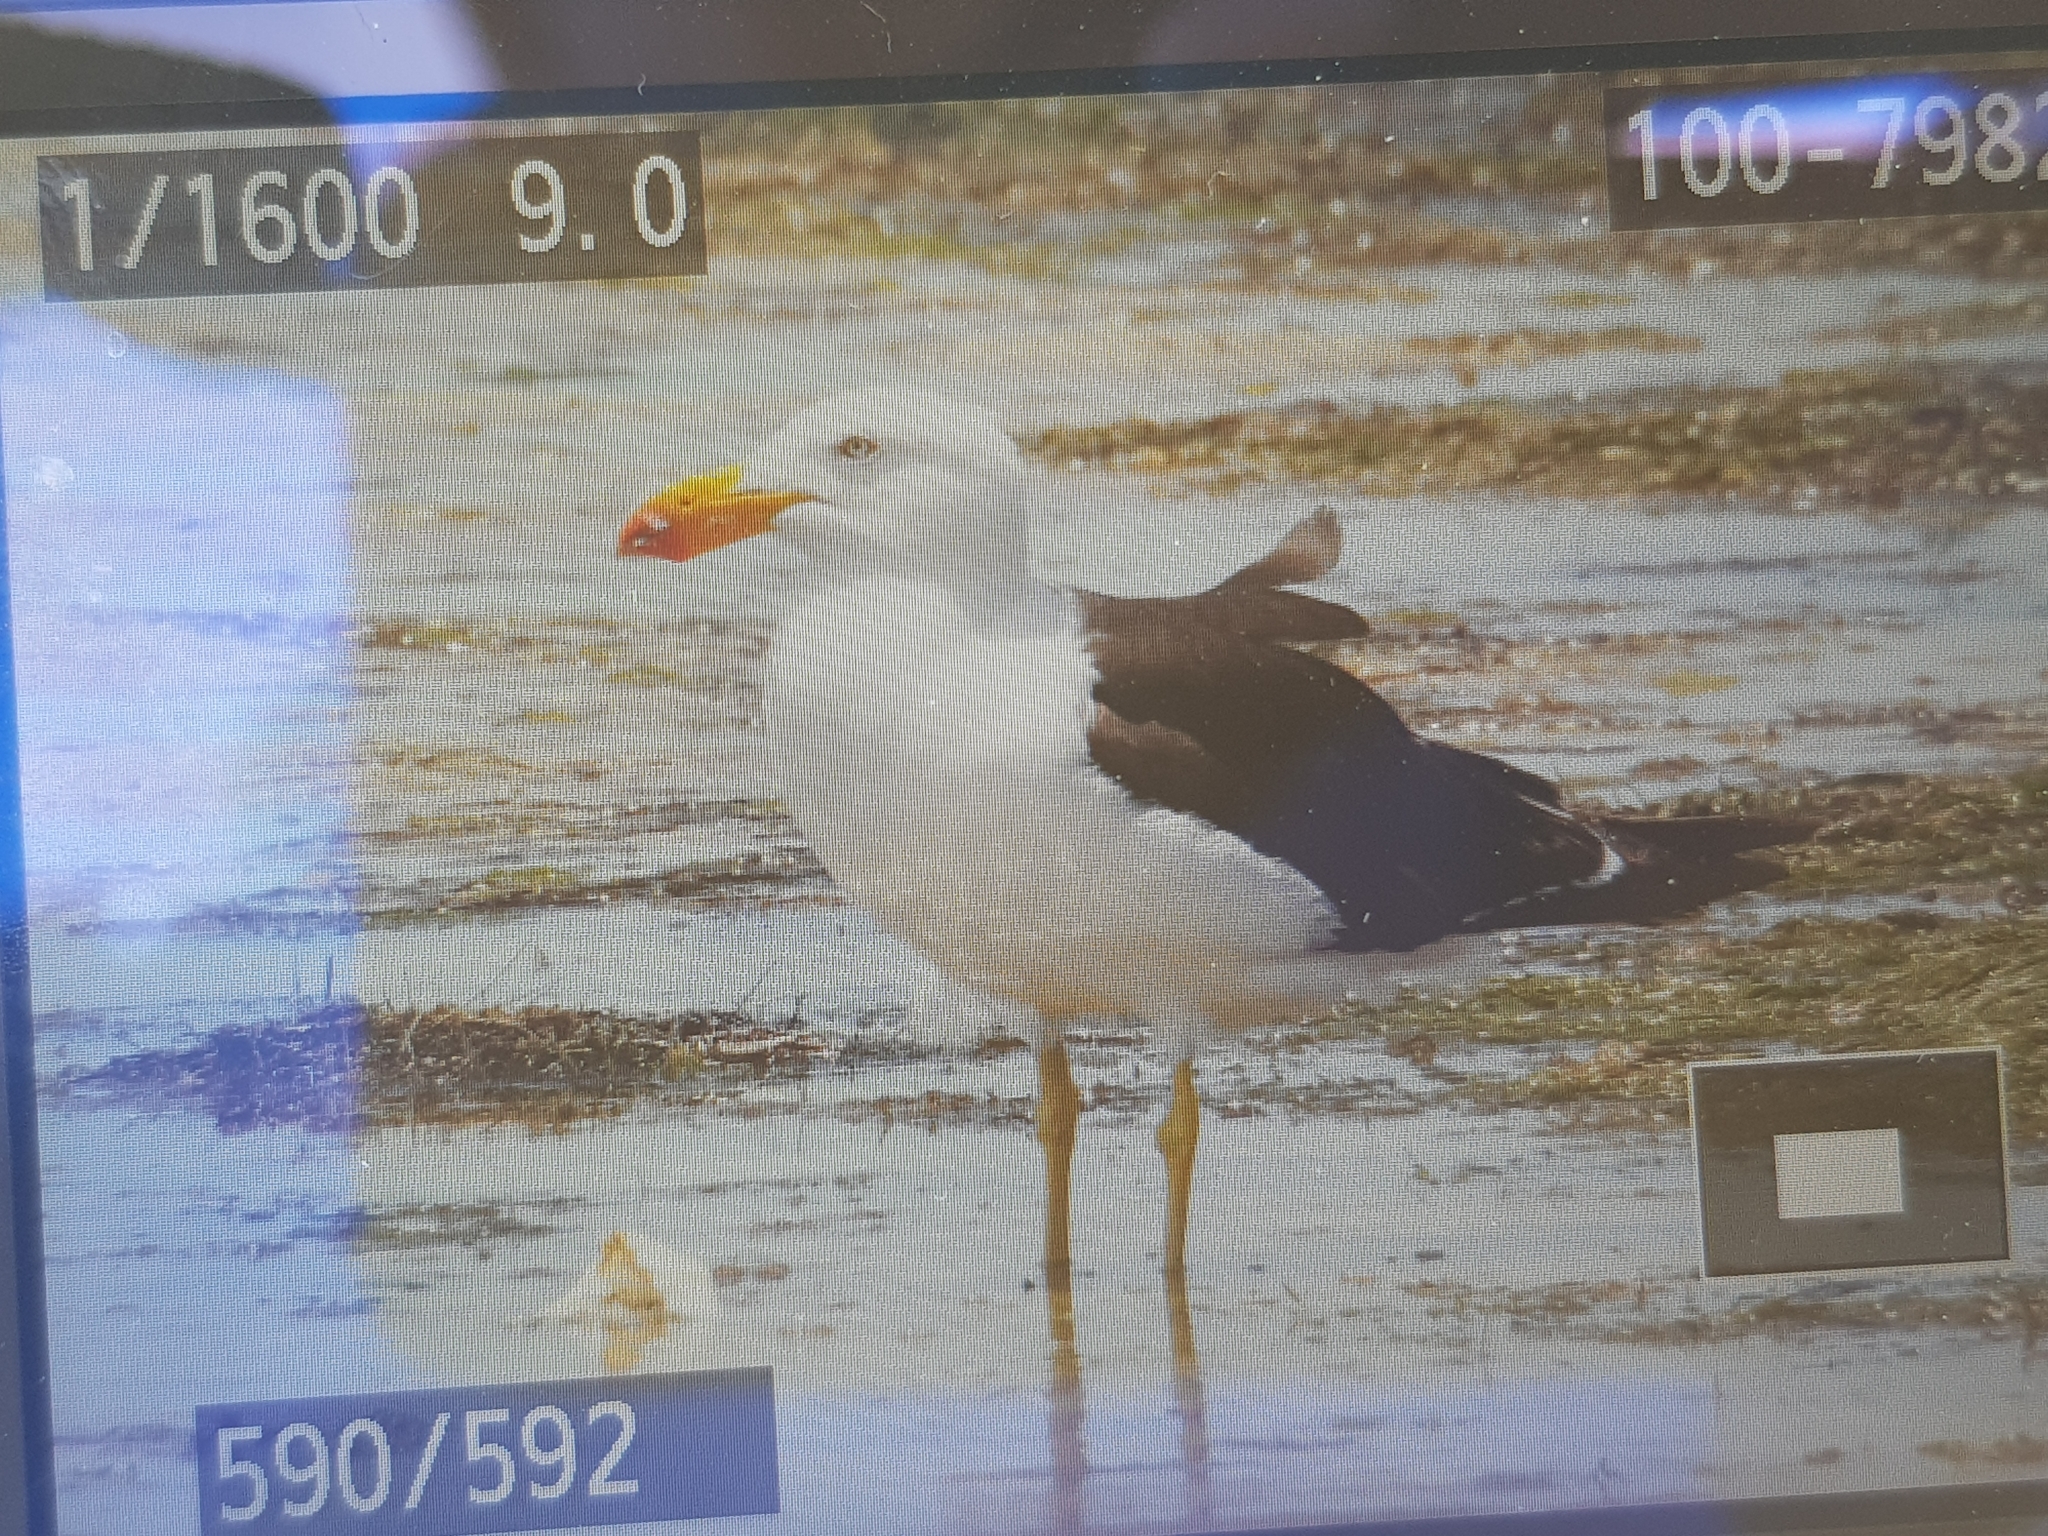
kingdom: Animalia
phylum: Chordata
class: Aves
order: Charadriiformes
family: Laridae
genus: Larus
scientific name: Larus pacificus
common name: Pacific gull
